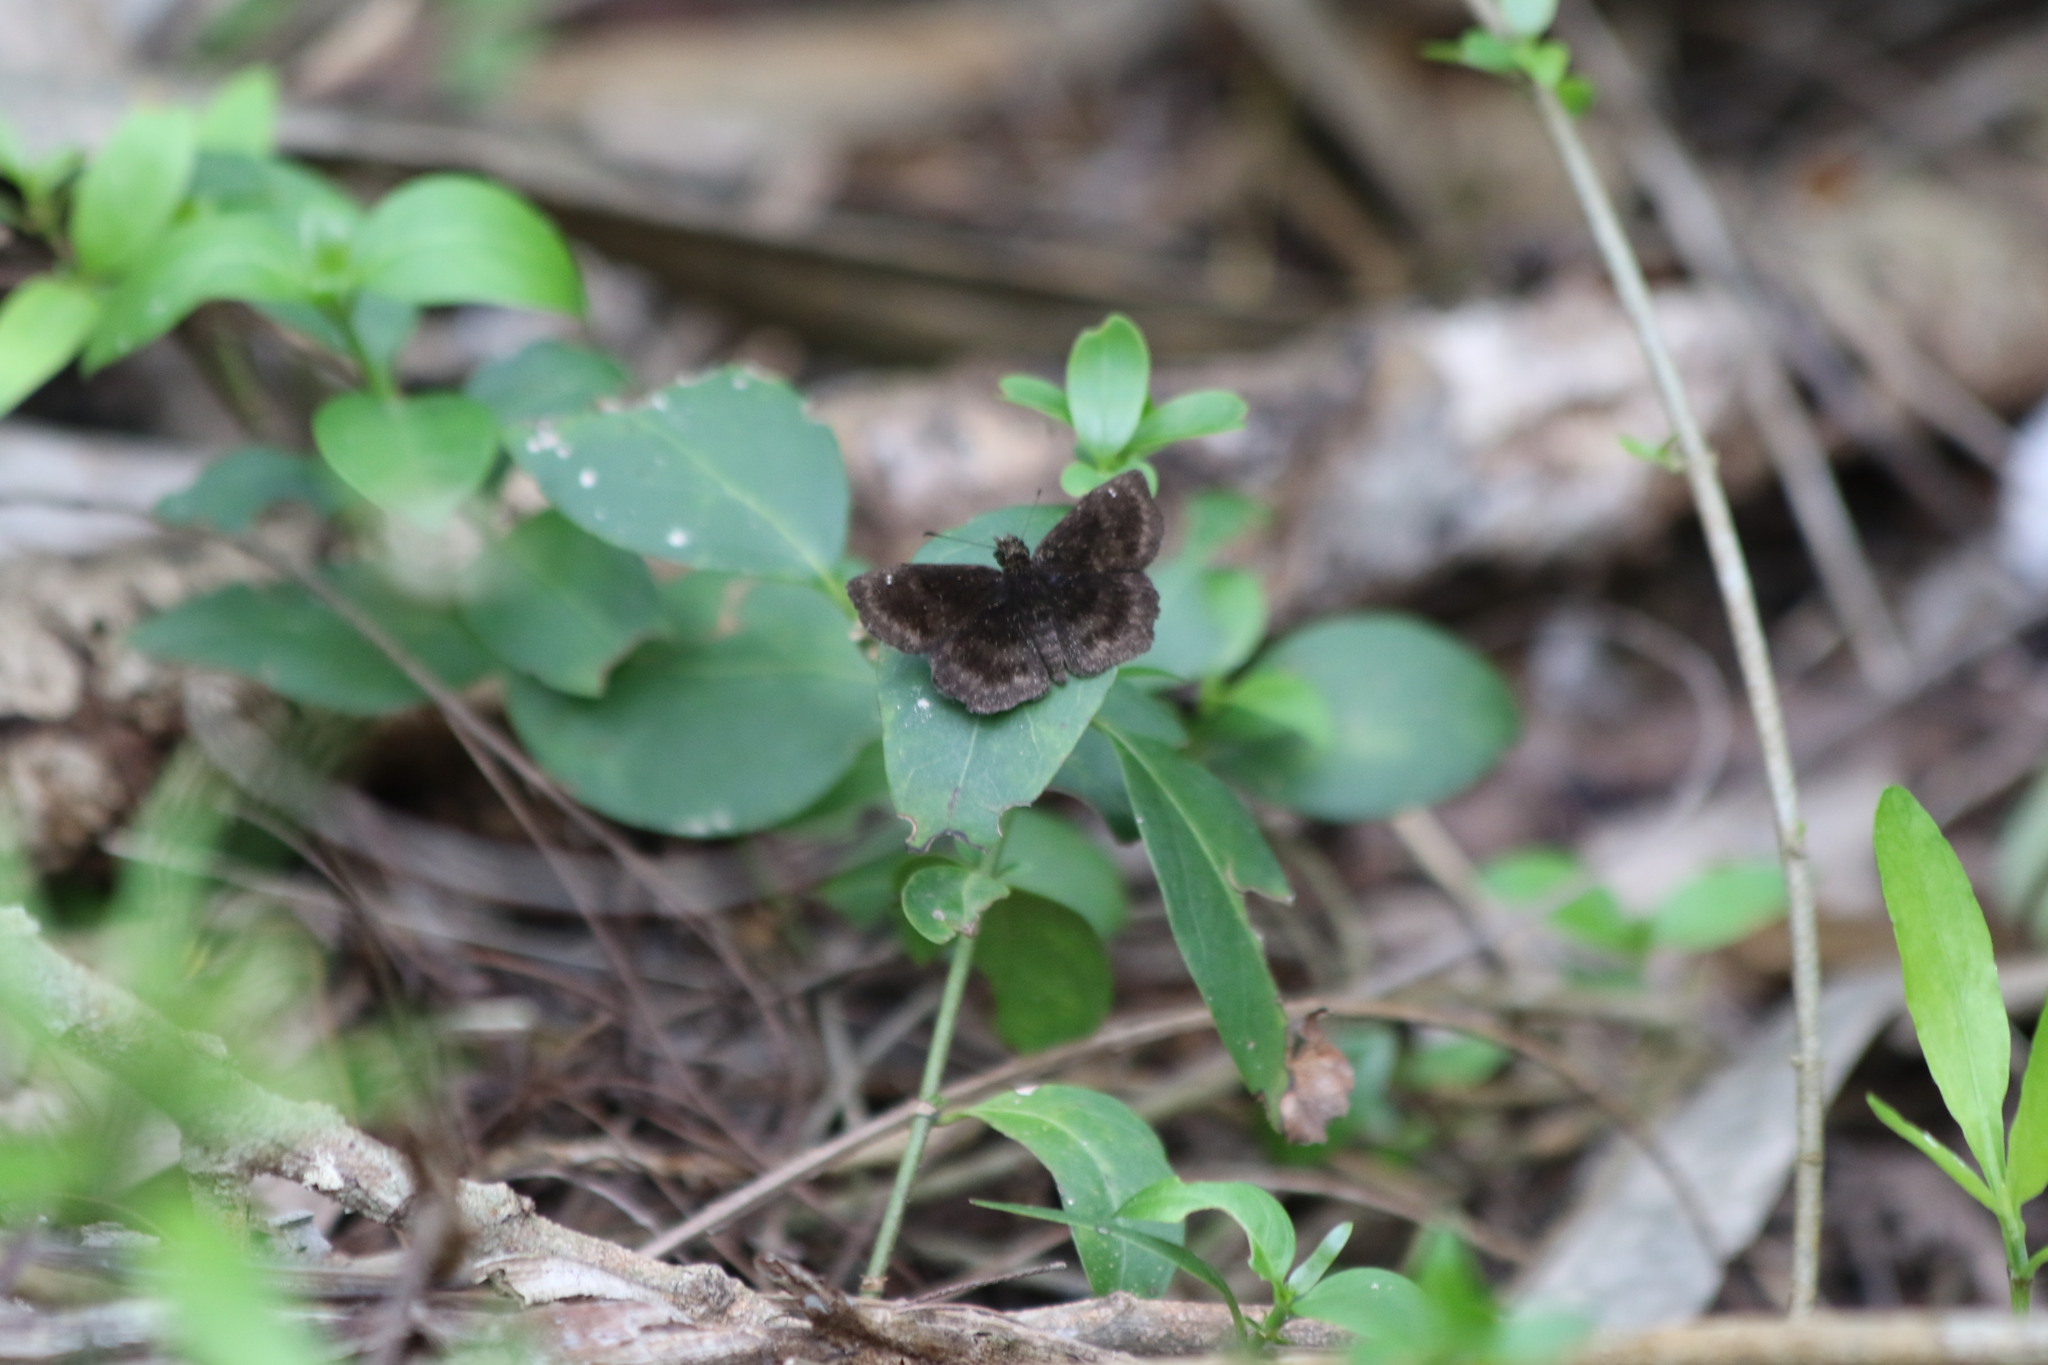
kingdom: Animalia
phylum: Arthropoda
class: Insecta
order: Lepidoptera
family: Hesperiidae
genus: Staphylus
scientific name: Staphylus mazans
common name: Mazans scallopwing
